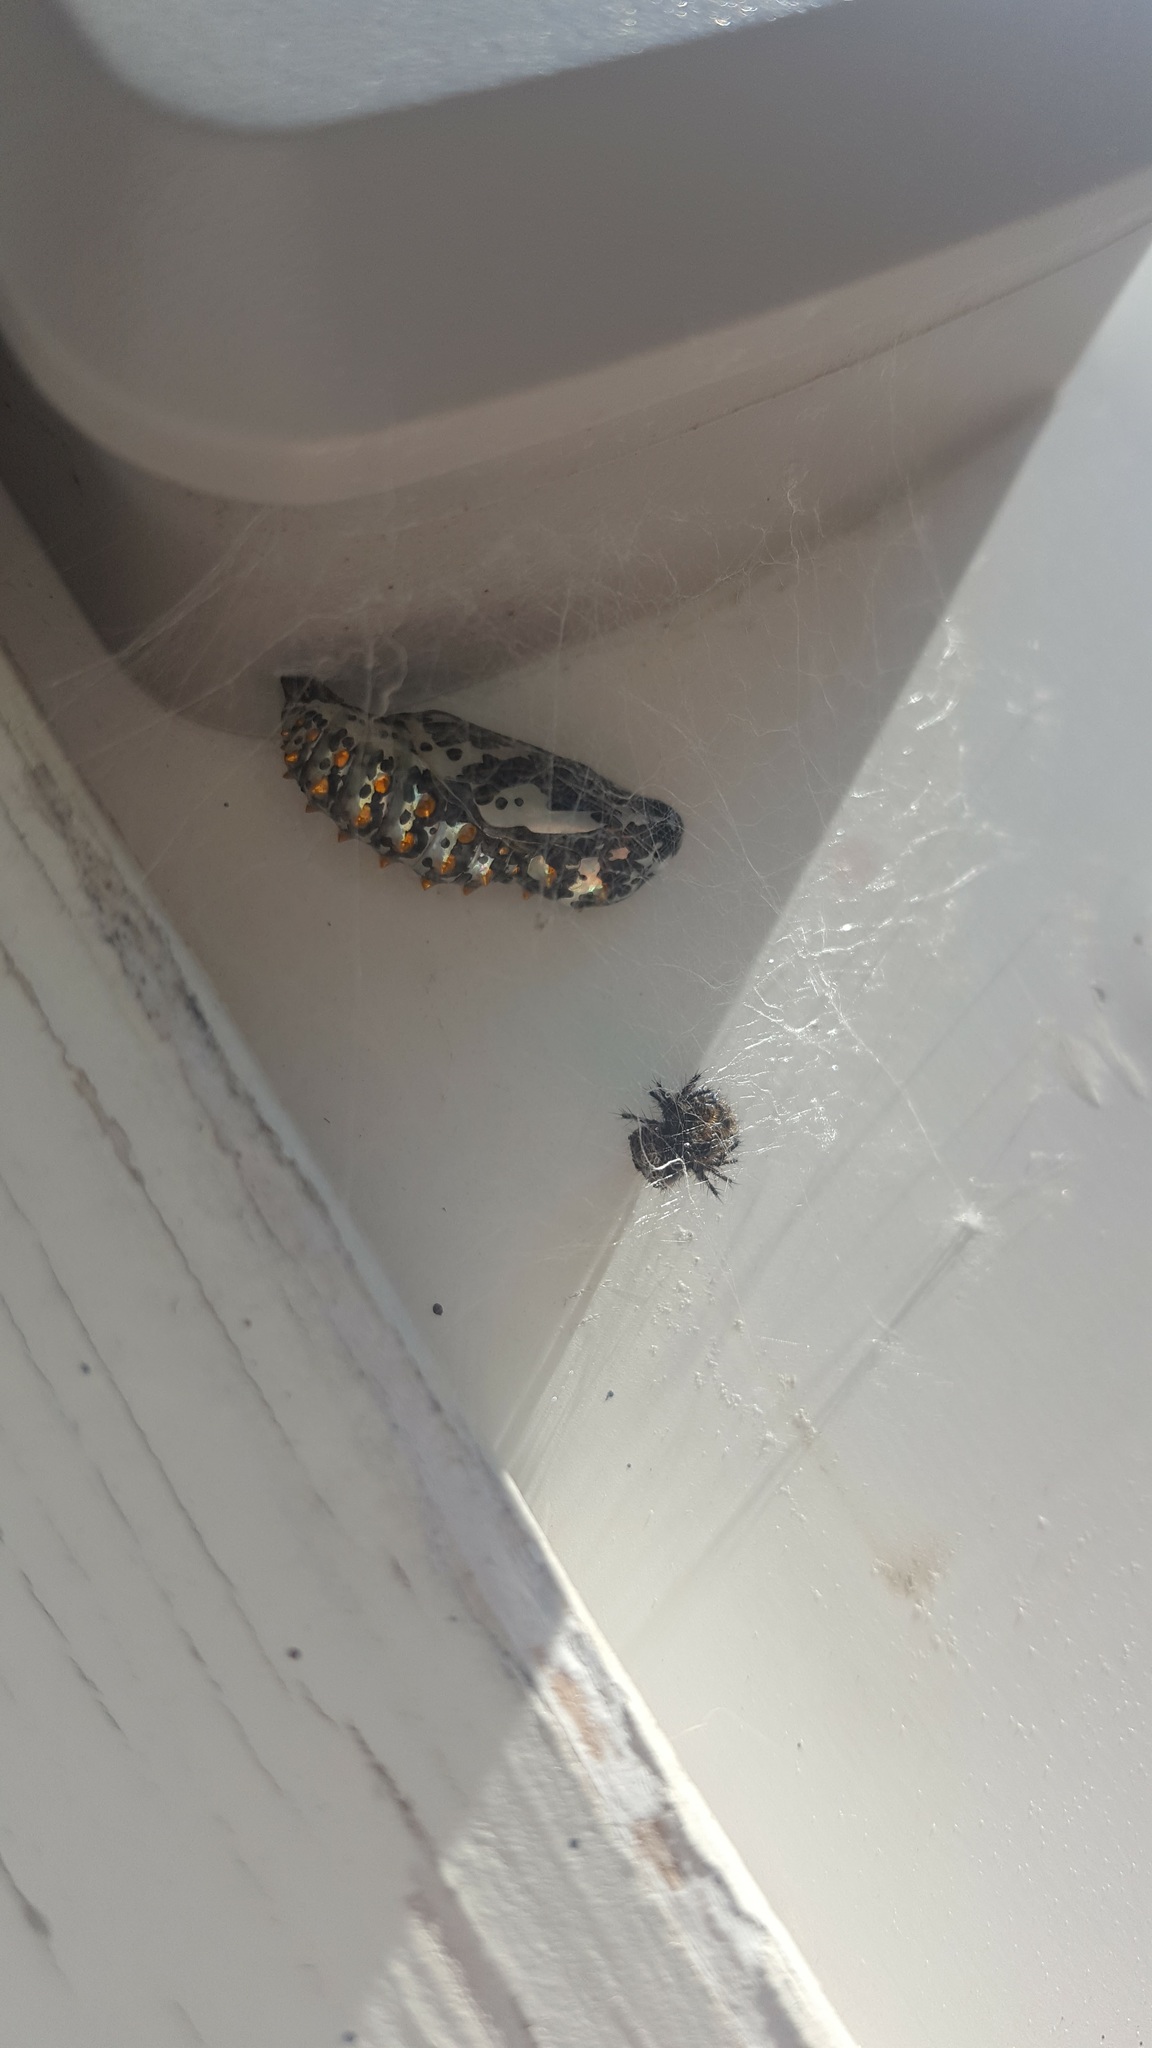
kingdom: Animalia
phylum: Arthropoda
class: Insecta
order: Lepidoptera
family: Nymphalidae
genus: Euptoieta
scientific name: Euptoieta claudia
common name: Variegated fritillary
